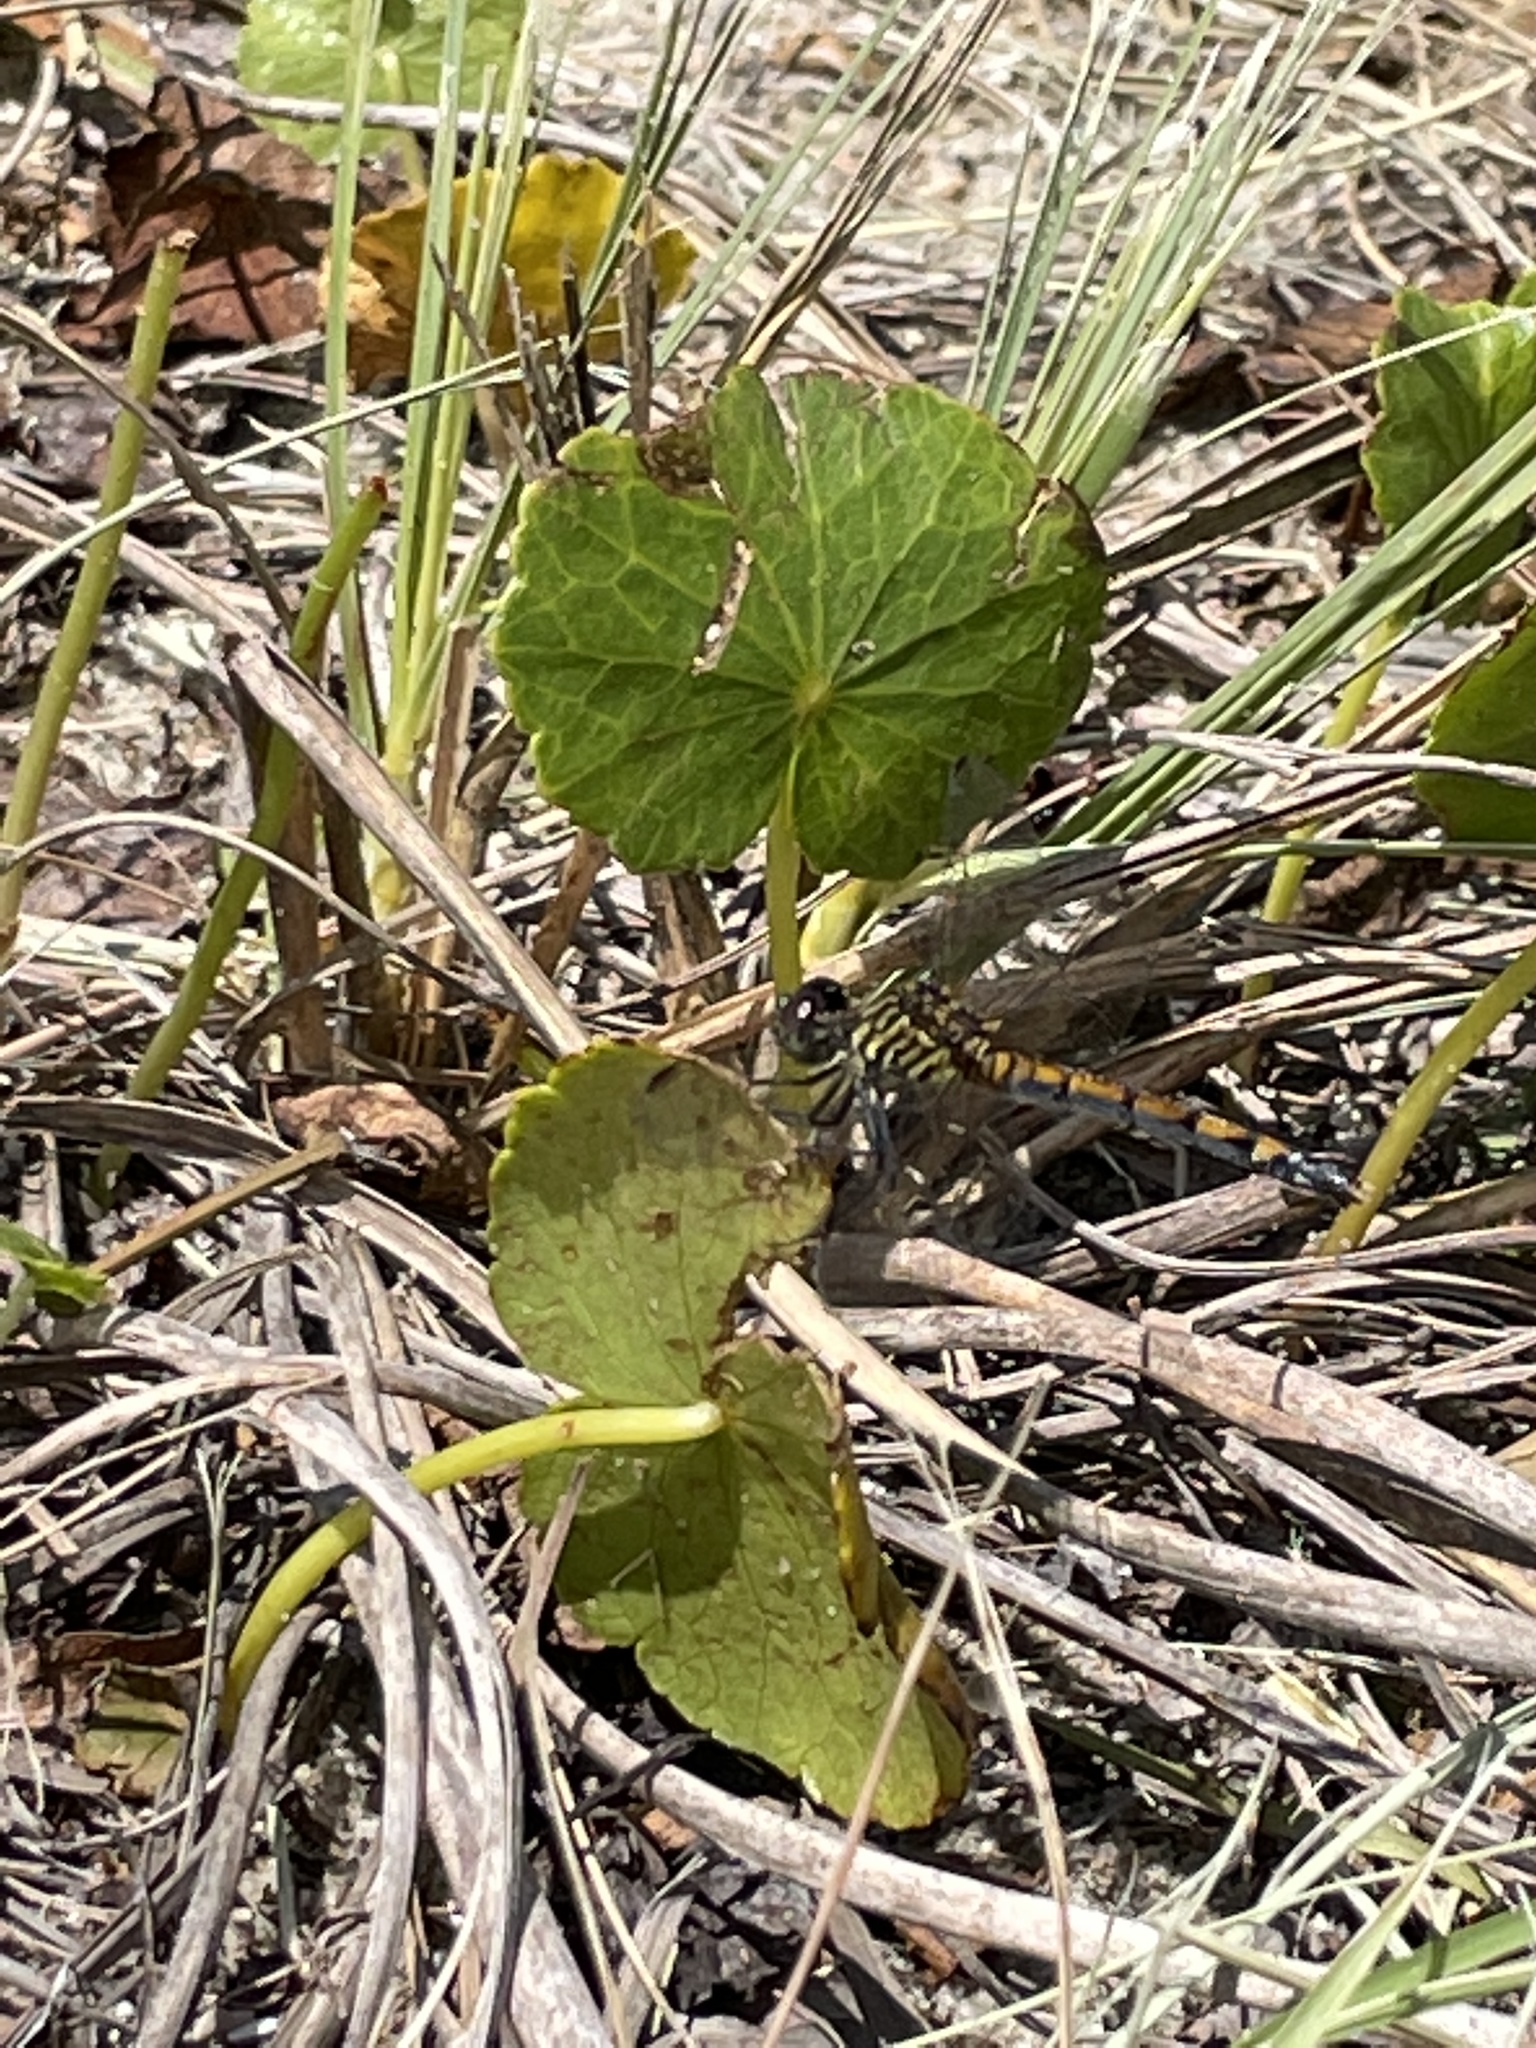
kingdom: Animalia
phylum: Arthropoda
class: Insecta
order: Odonata
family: Libellulidae
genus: Erythrodiplax
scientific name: Erythrodiplax berenice
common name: Seaside dragonlet
